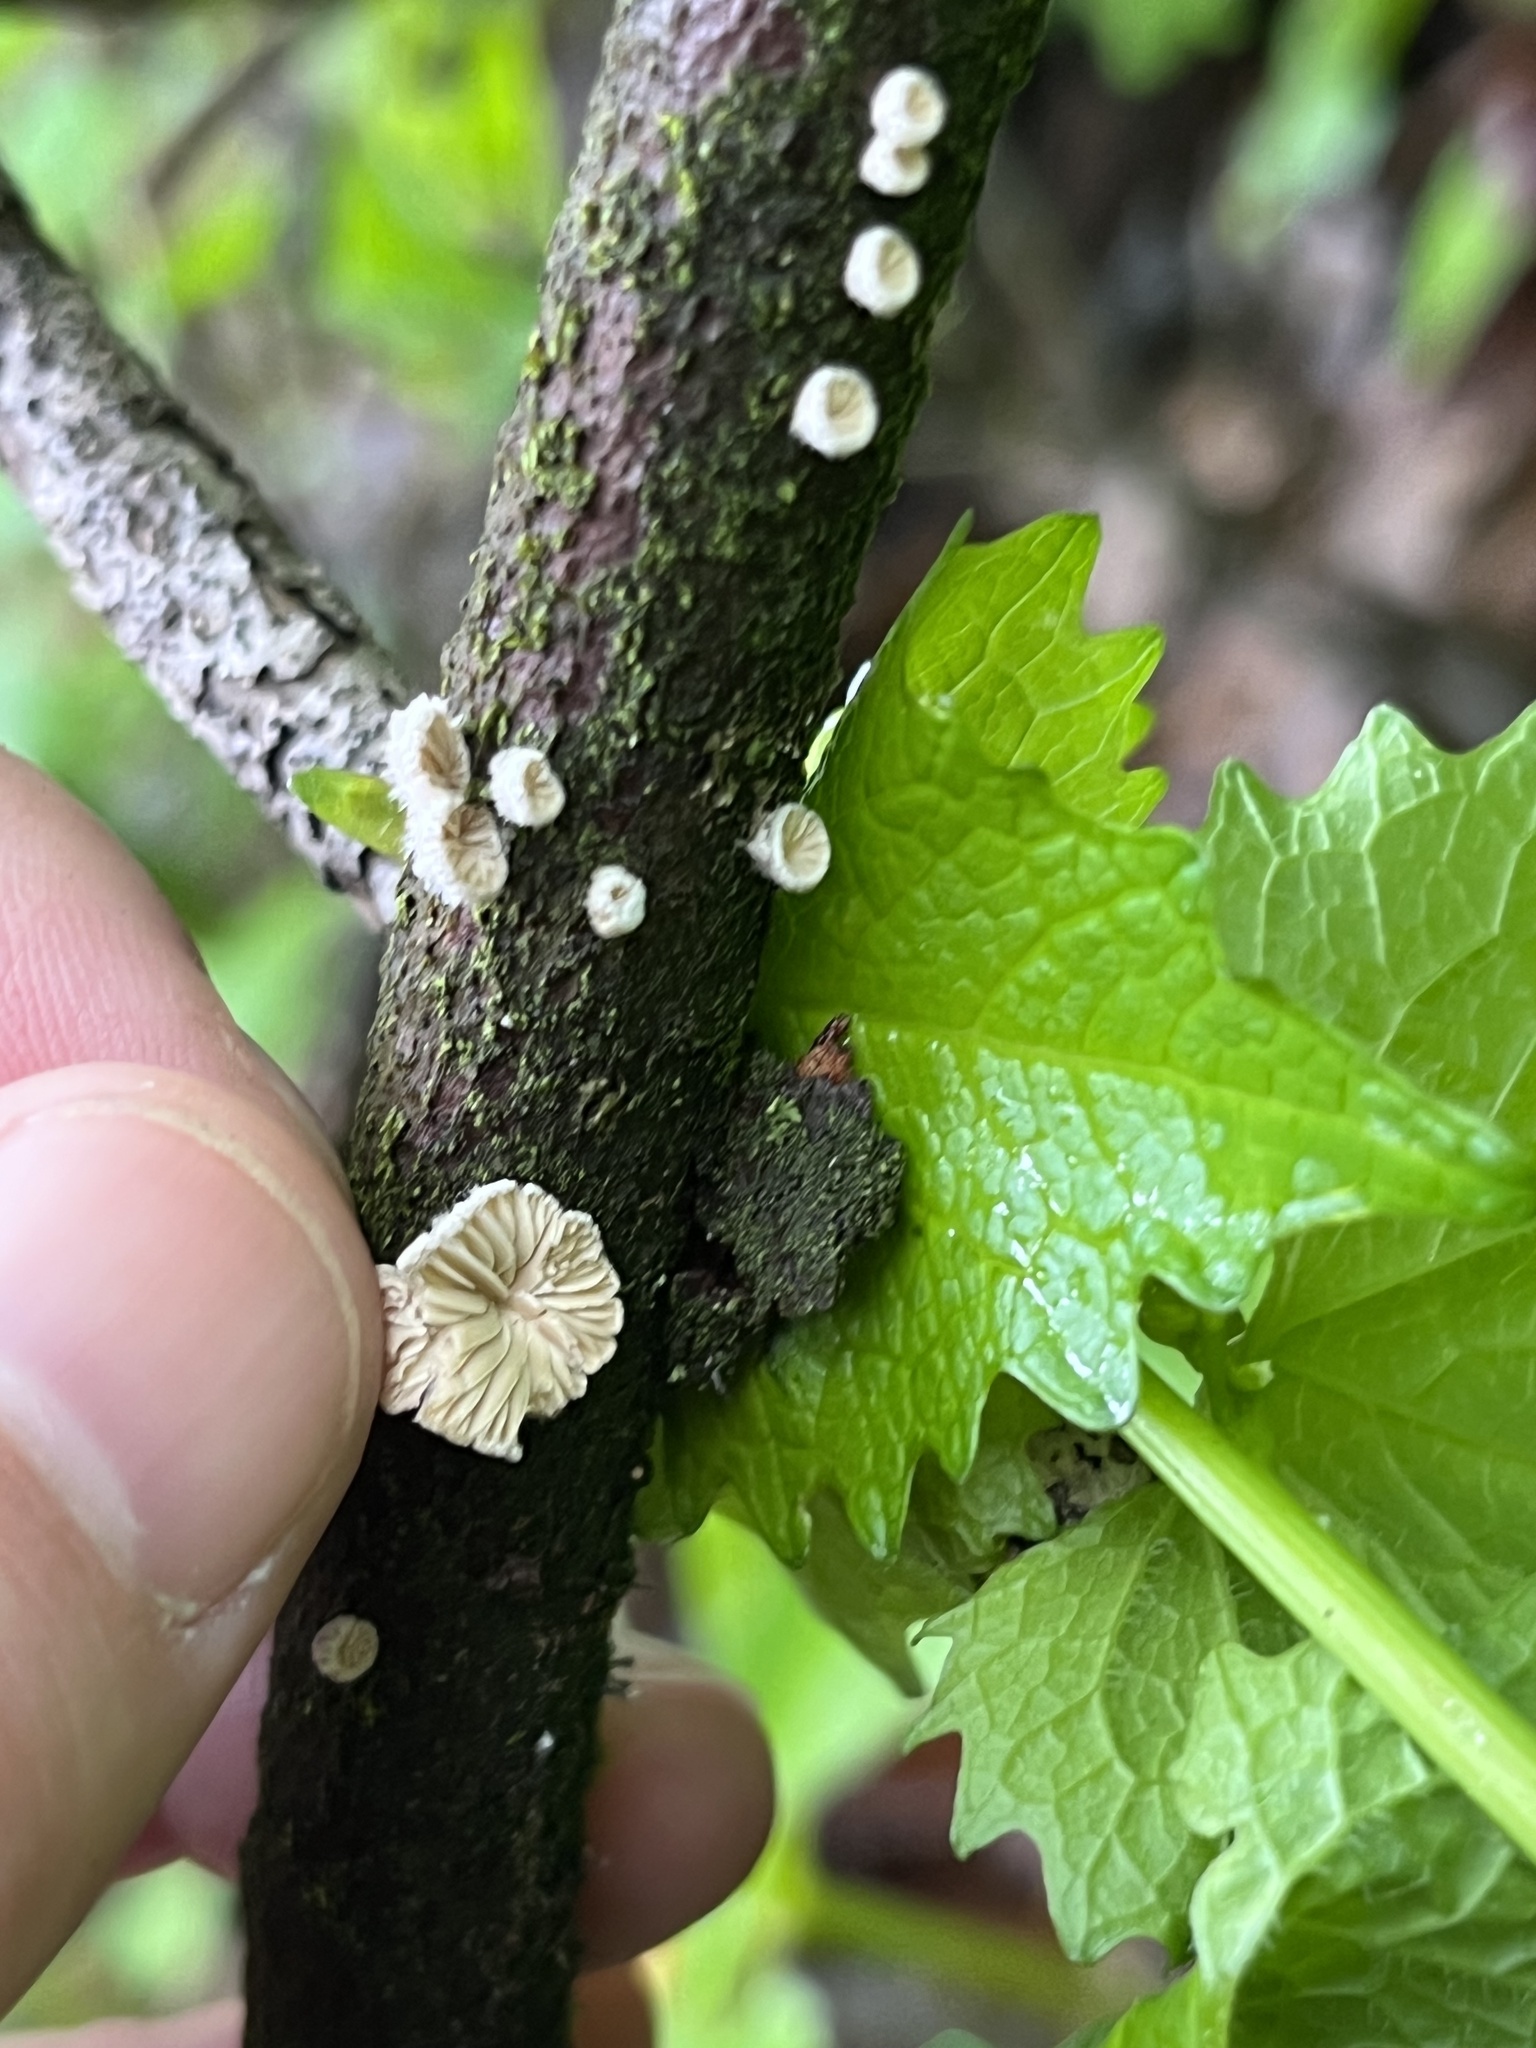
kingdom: Fungi
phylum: Basidiomycota
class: Agaricomycetes
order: Agaricales
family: Schizophyllaceae
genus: Schizophyllum
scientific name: Schizophyllum commune
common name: Common porecrust
